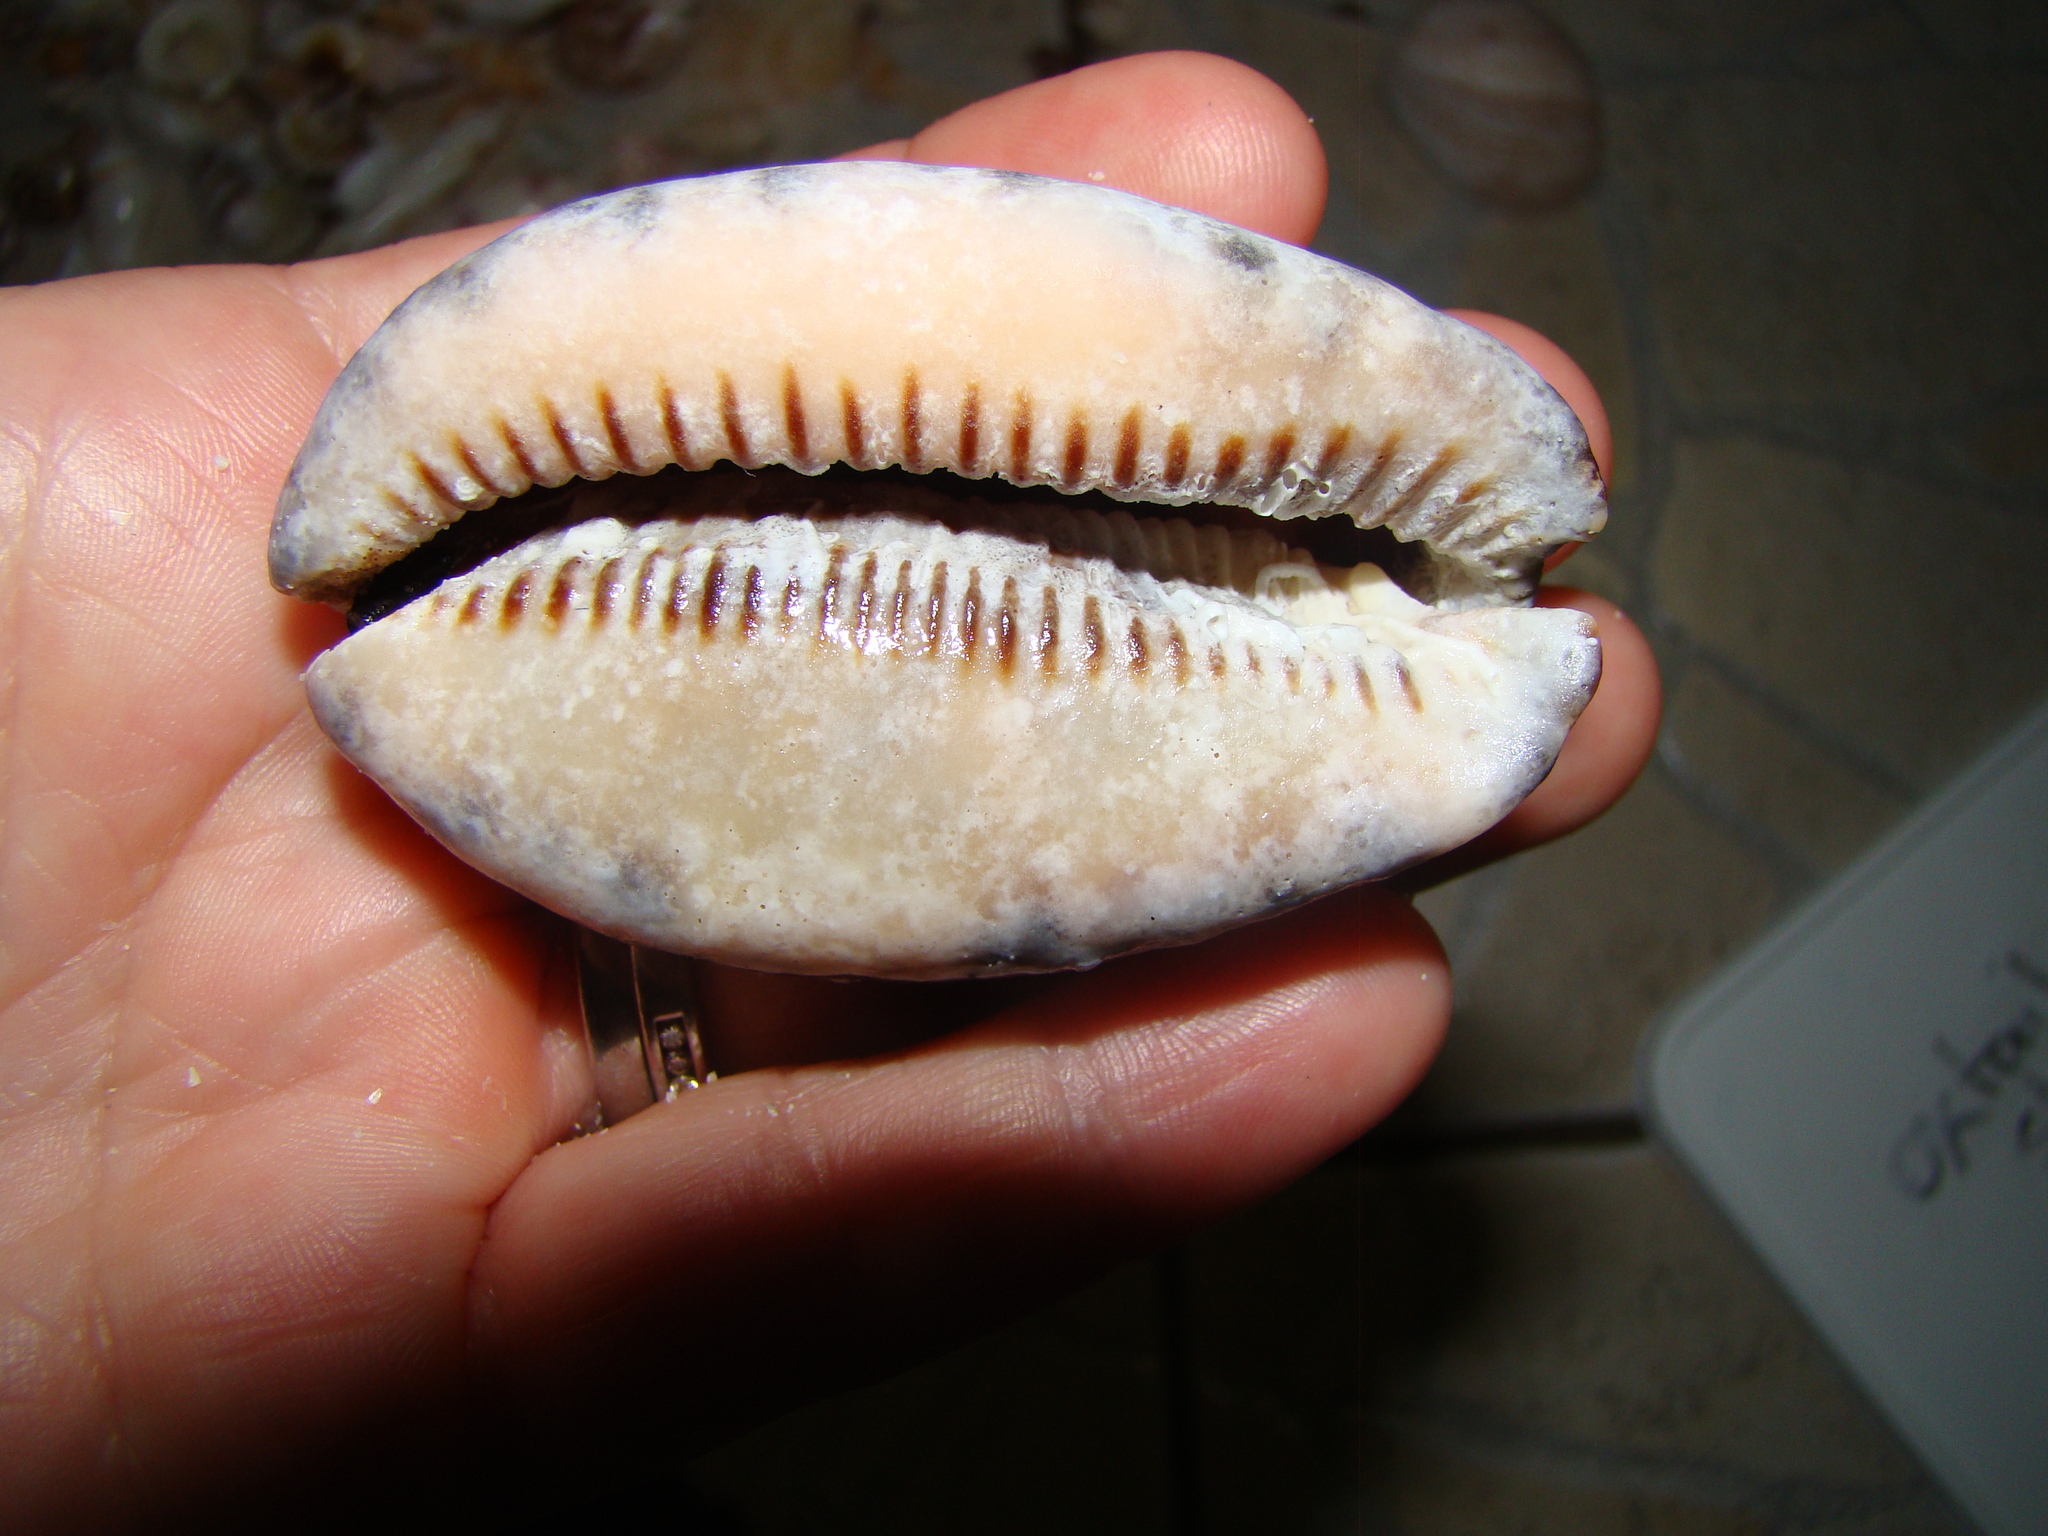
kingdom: Animalia
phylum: Mollusca
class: Gastropoda
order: Littorinimorpha
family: Cypraeidae
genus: Mauritia
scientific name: Mauritia arabica
